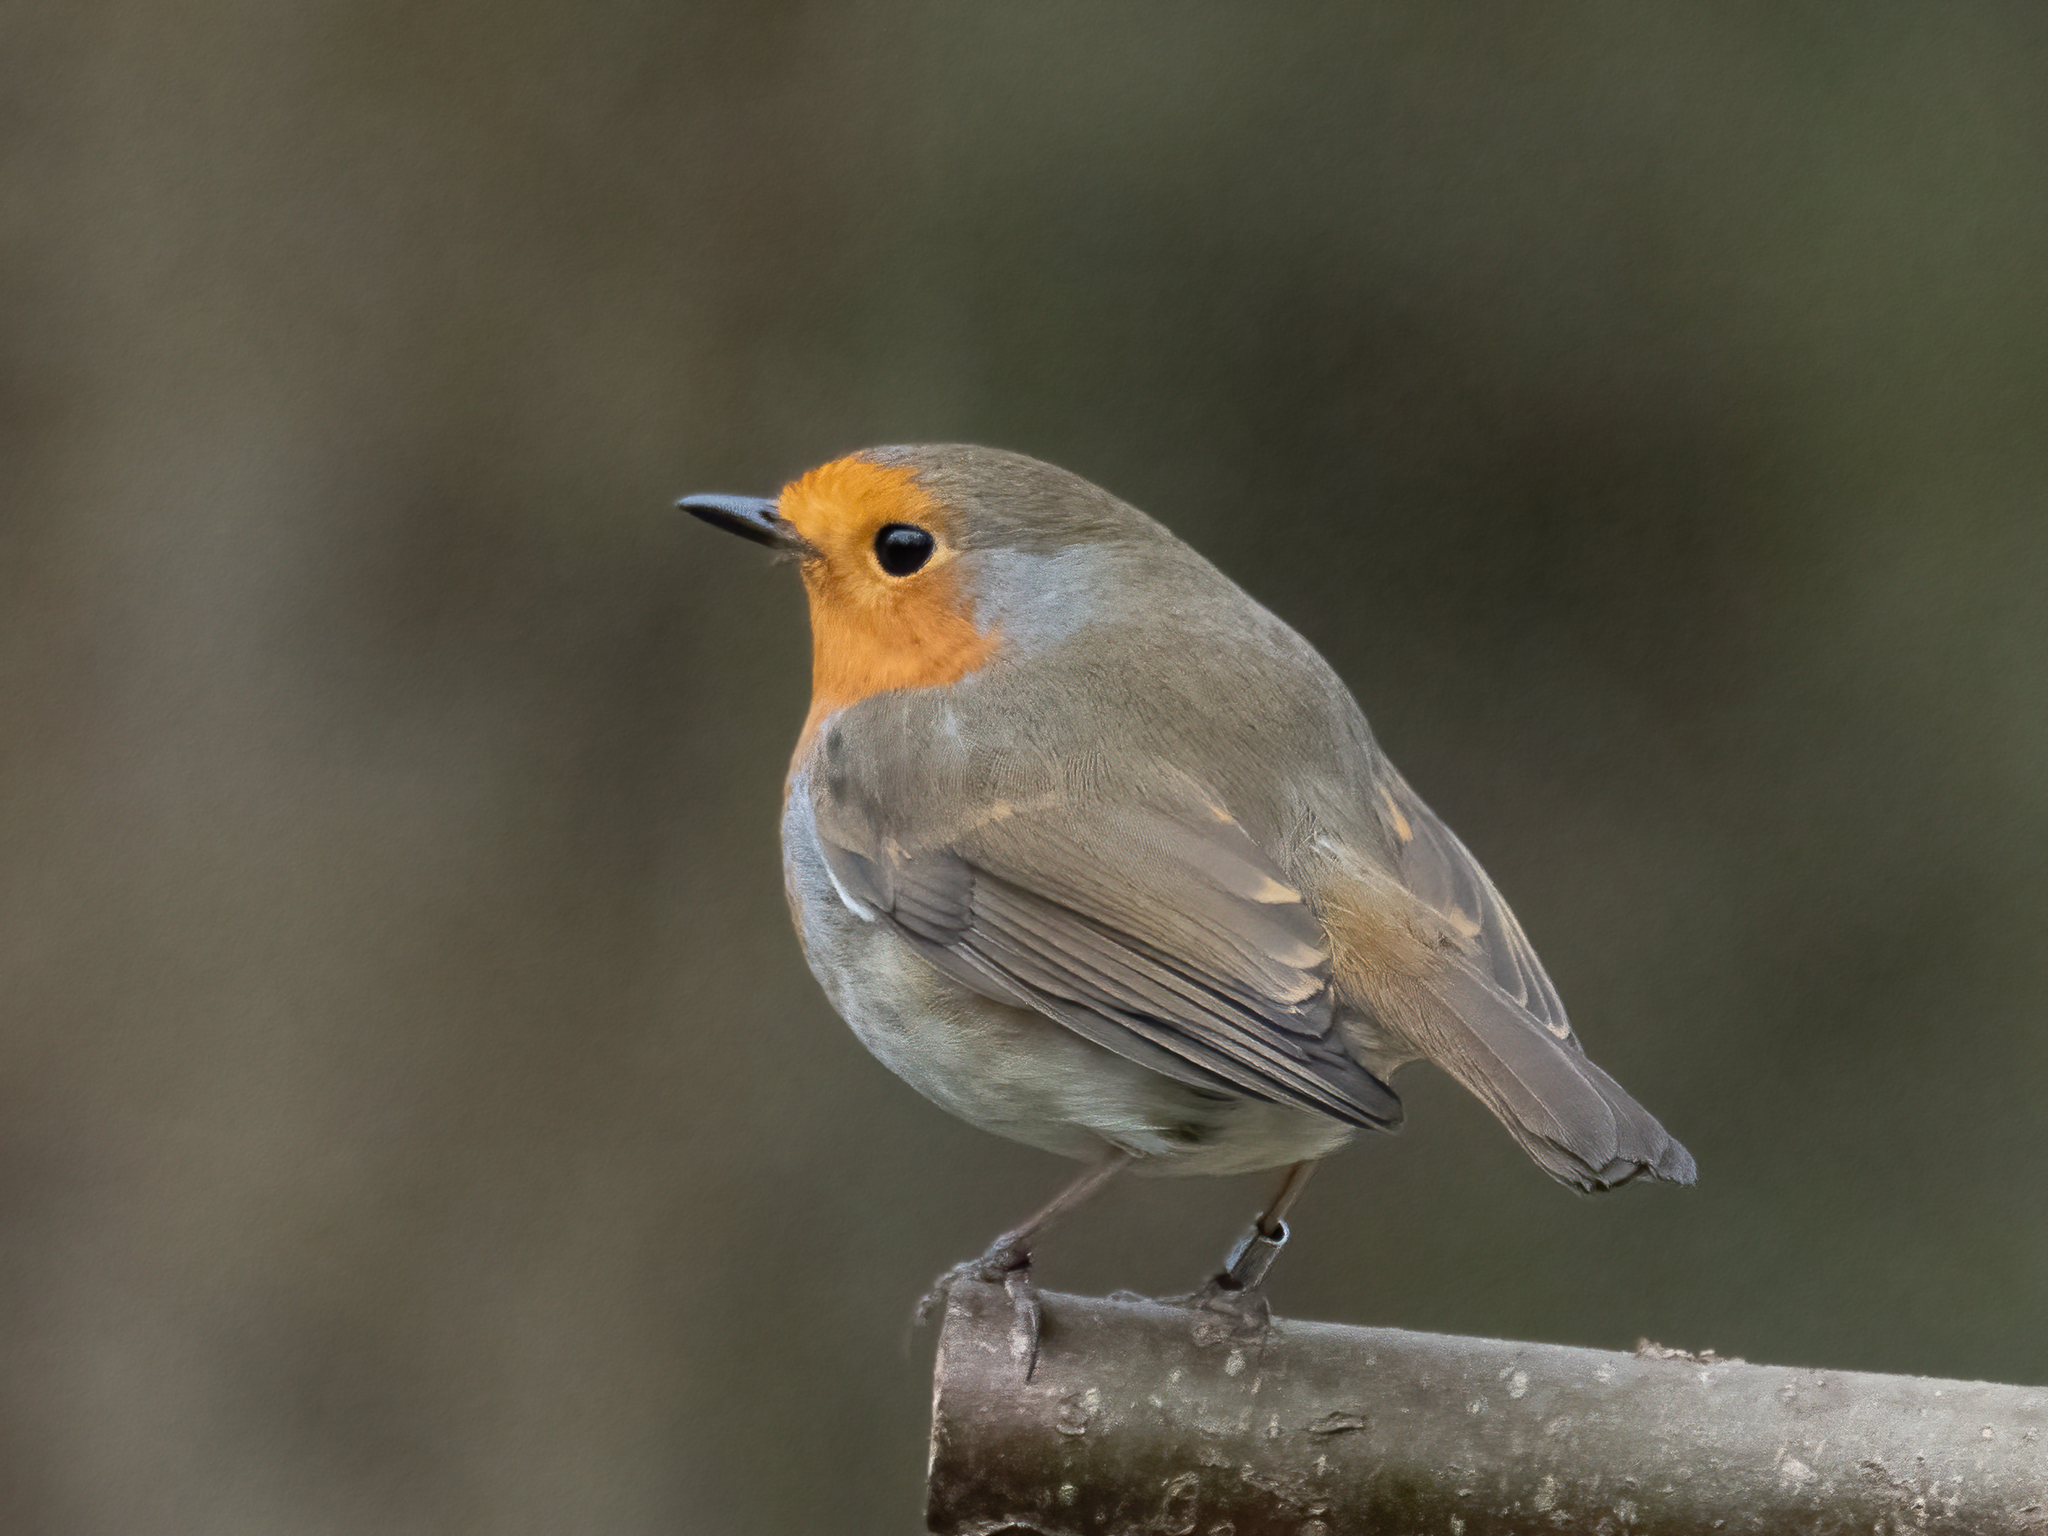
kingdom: Animalia
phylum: Chordata
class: Aves
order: Passeriformes
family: Muscicapidae
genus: Erithacus
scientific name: Erithacus rubecula
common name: European robin
